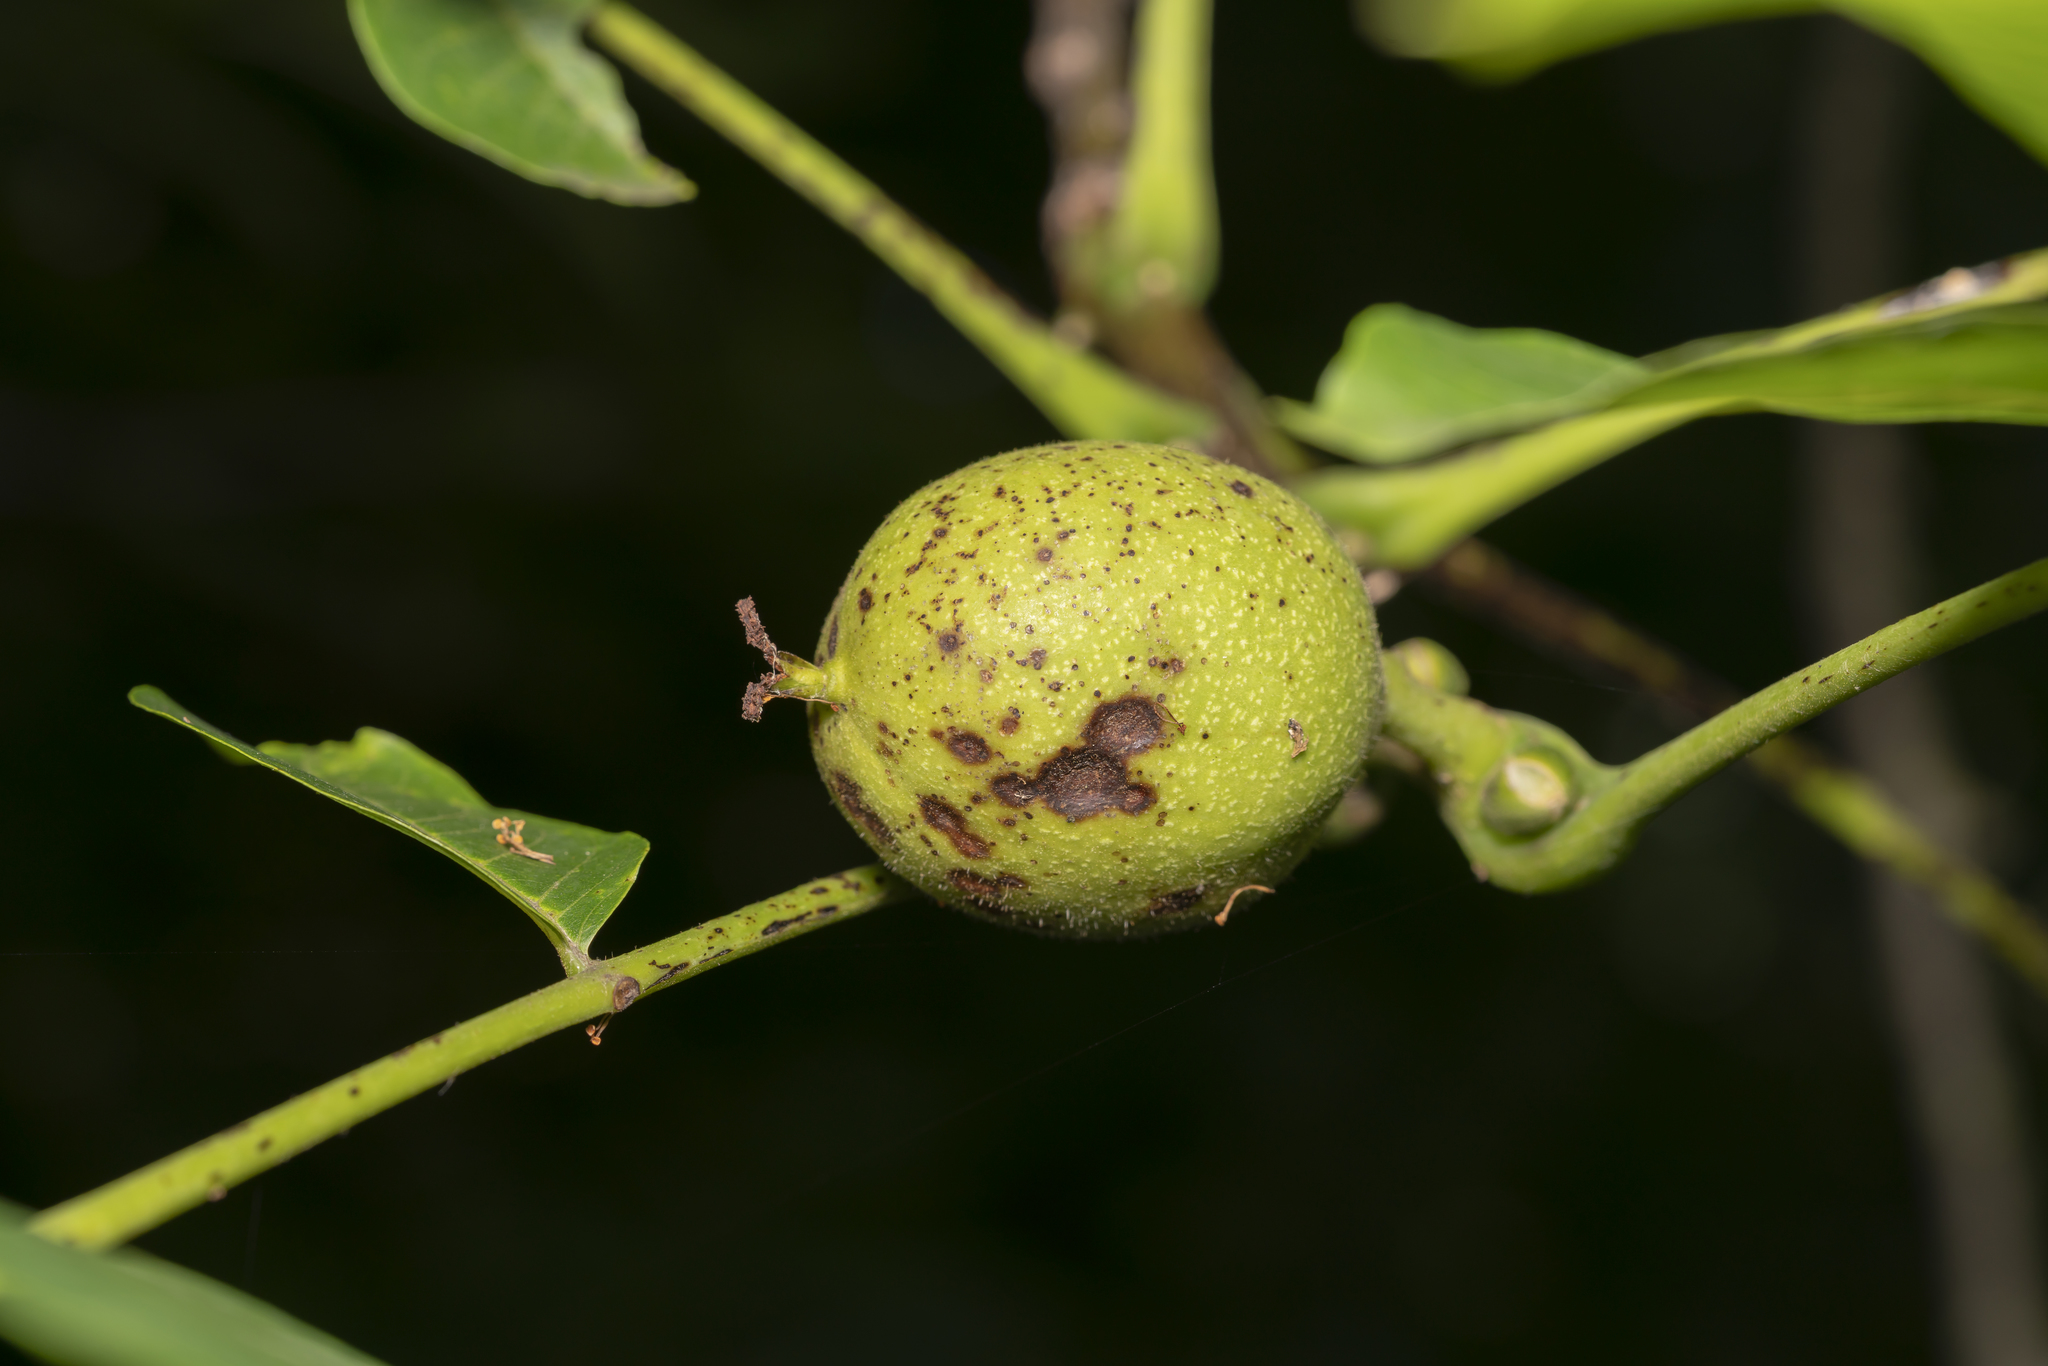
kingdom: Plantae
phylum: Tracheophyta
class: Magnoliopsida
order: Fagales
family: Juglandaceae
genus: Juglans
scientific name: Juglans regia
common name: Walnut
